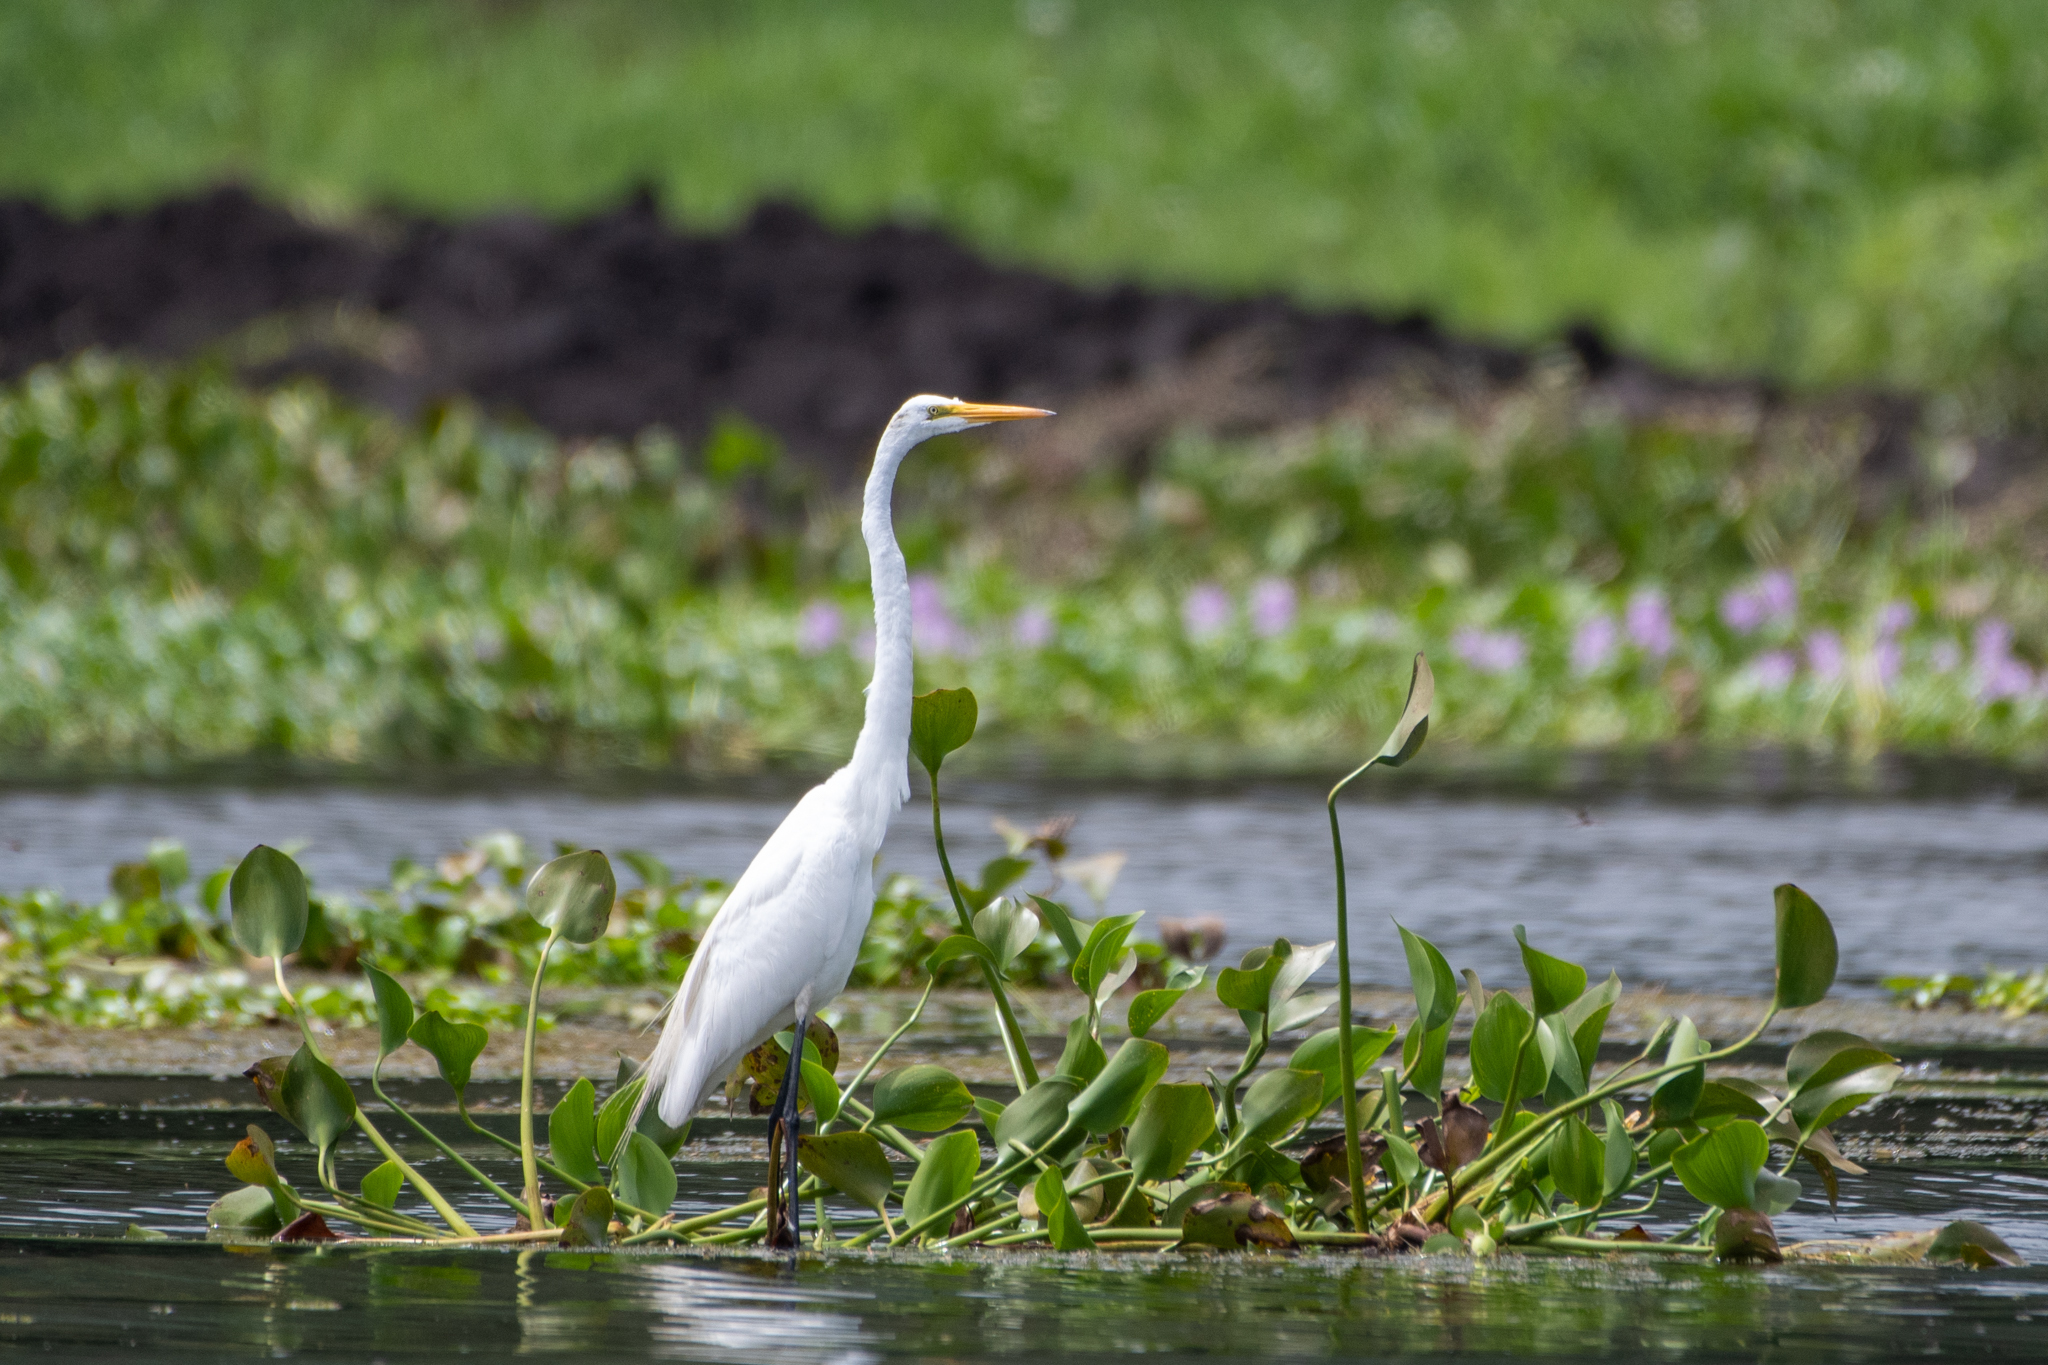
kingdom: Animalia
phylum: Chordata
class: Aves
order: Pelecaniformes
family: Ardeidae
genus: Ardea
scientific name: Ardea alba
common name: Great egret
